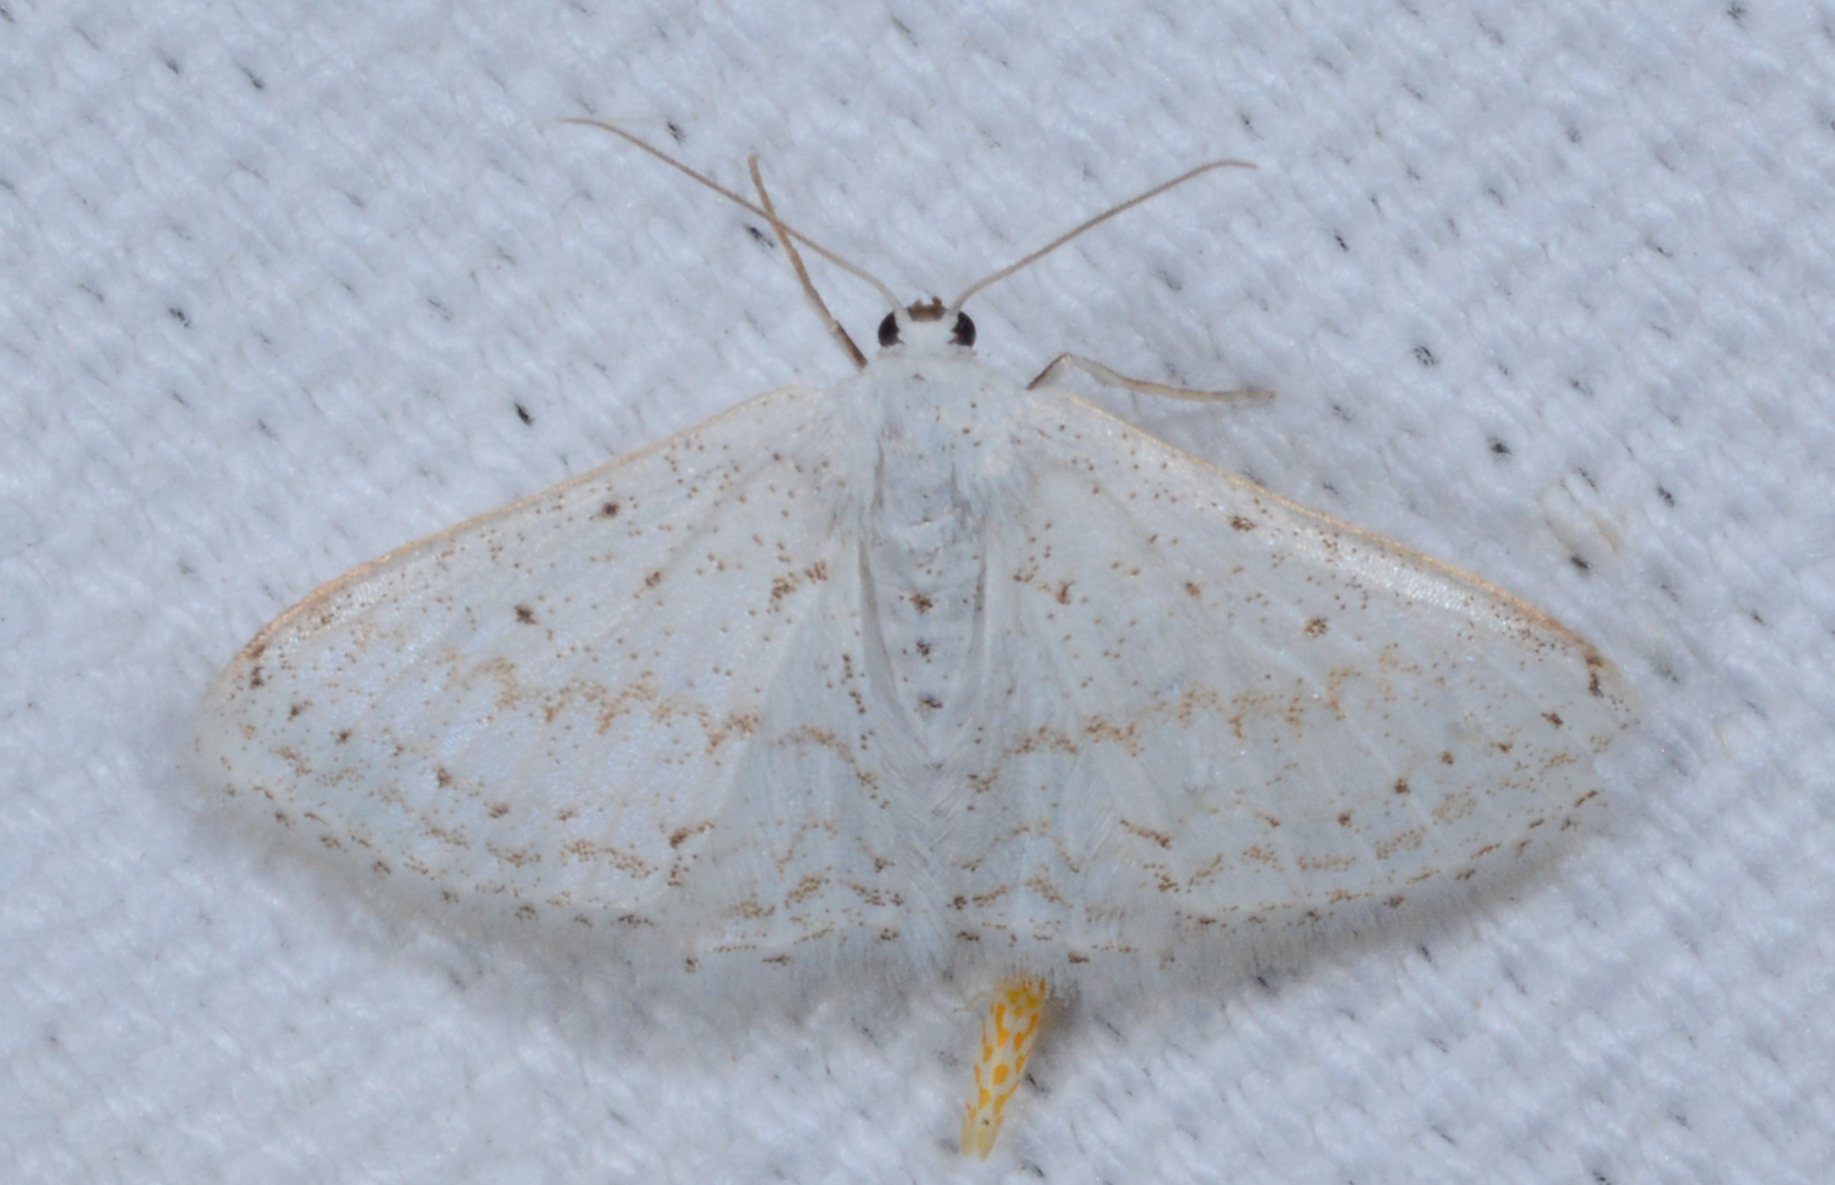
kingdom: Animalia
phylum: Arthropoda
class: Insecta
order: Lepidoptera
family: Geometridae
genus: Idaea
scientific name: Idaea tacturata
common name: Dot-lined wave
